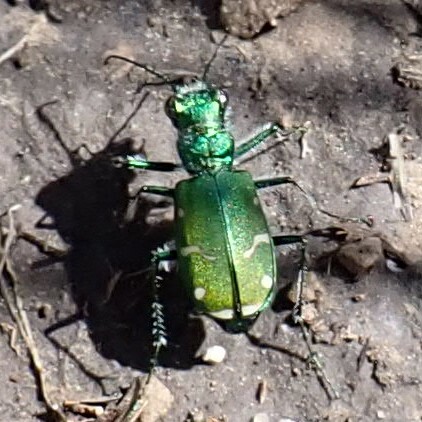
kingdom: Animalia
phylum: Arthropoda
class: Insecta
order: Coleoptera
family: Carabidae
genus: Cicindela
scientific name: Cicindela denverensis
